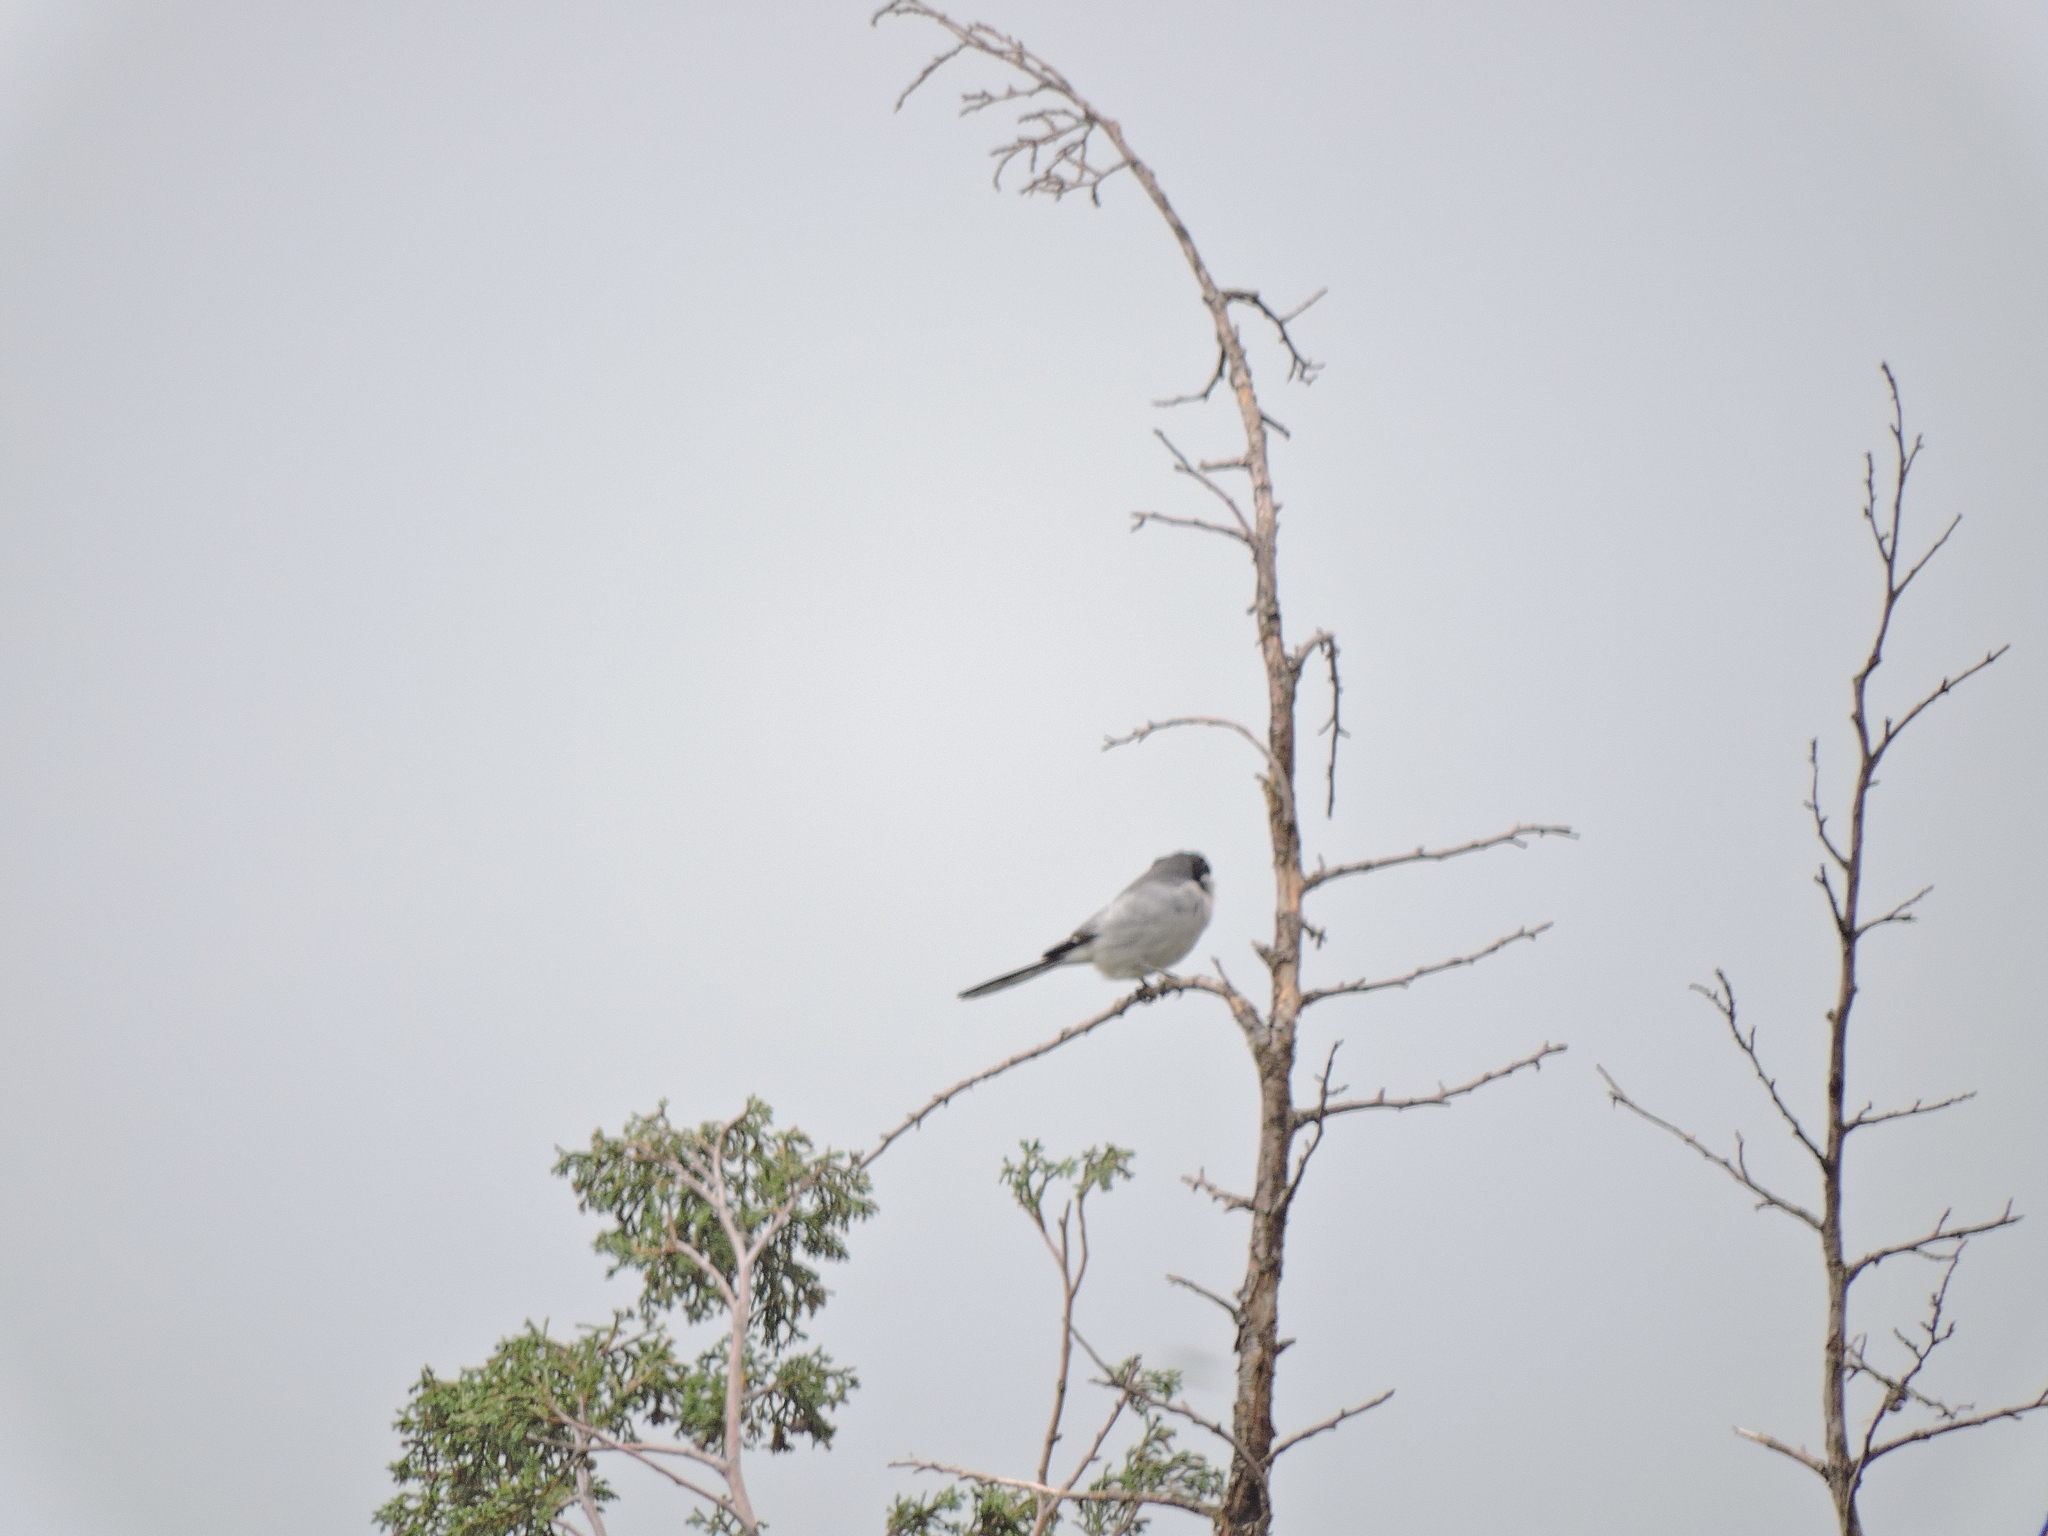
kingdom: Animalia
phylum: Chordata
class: Aves
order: Passeriformes
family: Laniidae
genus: Lanius
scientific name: Lanius ludovicianus
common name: Loggerhead shrike
